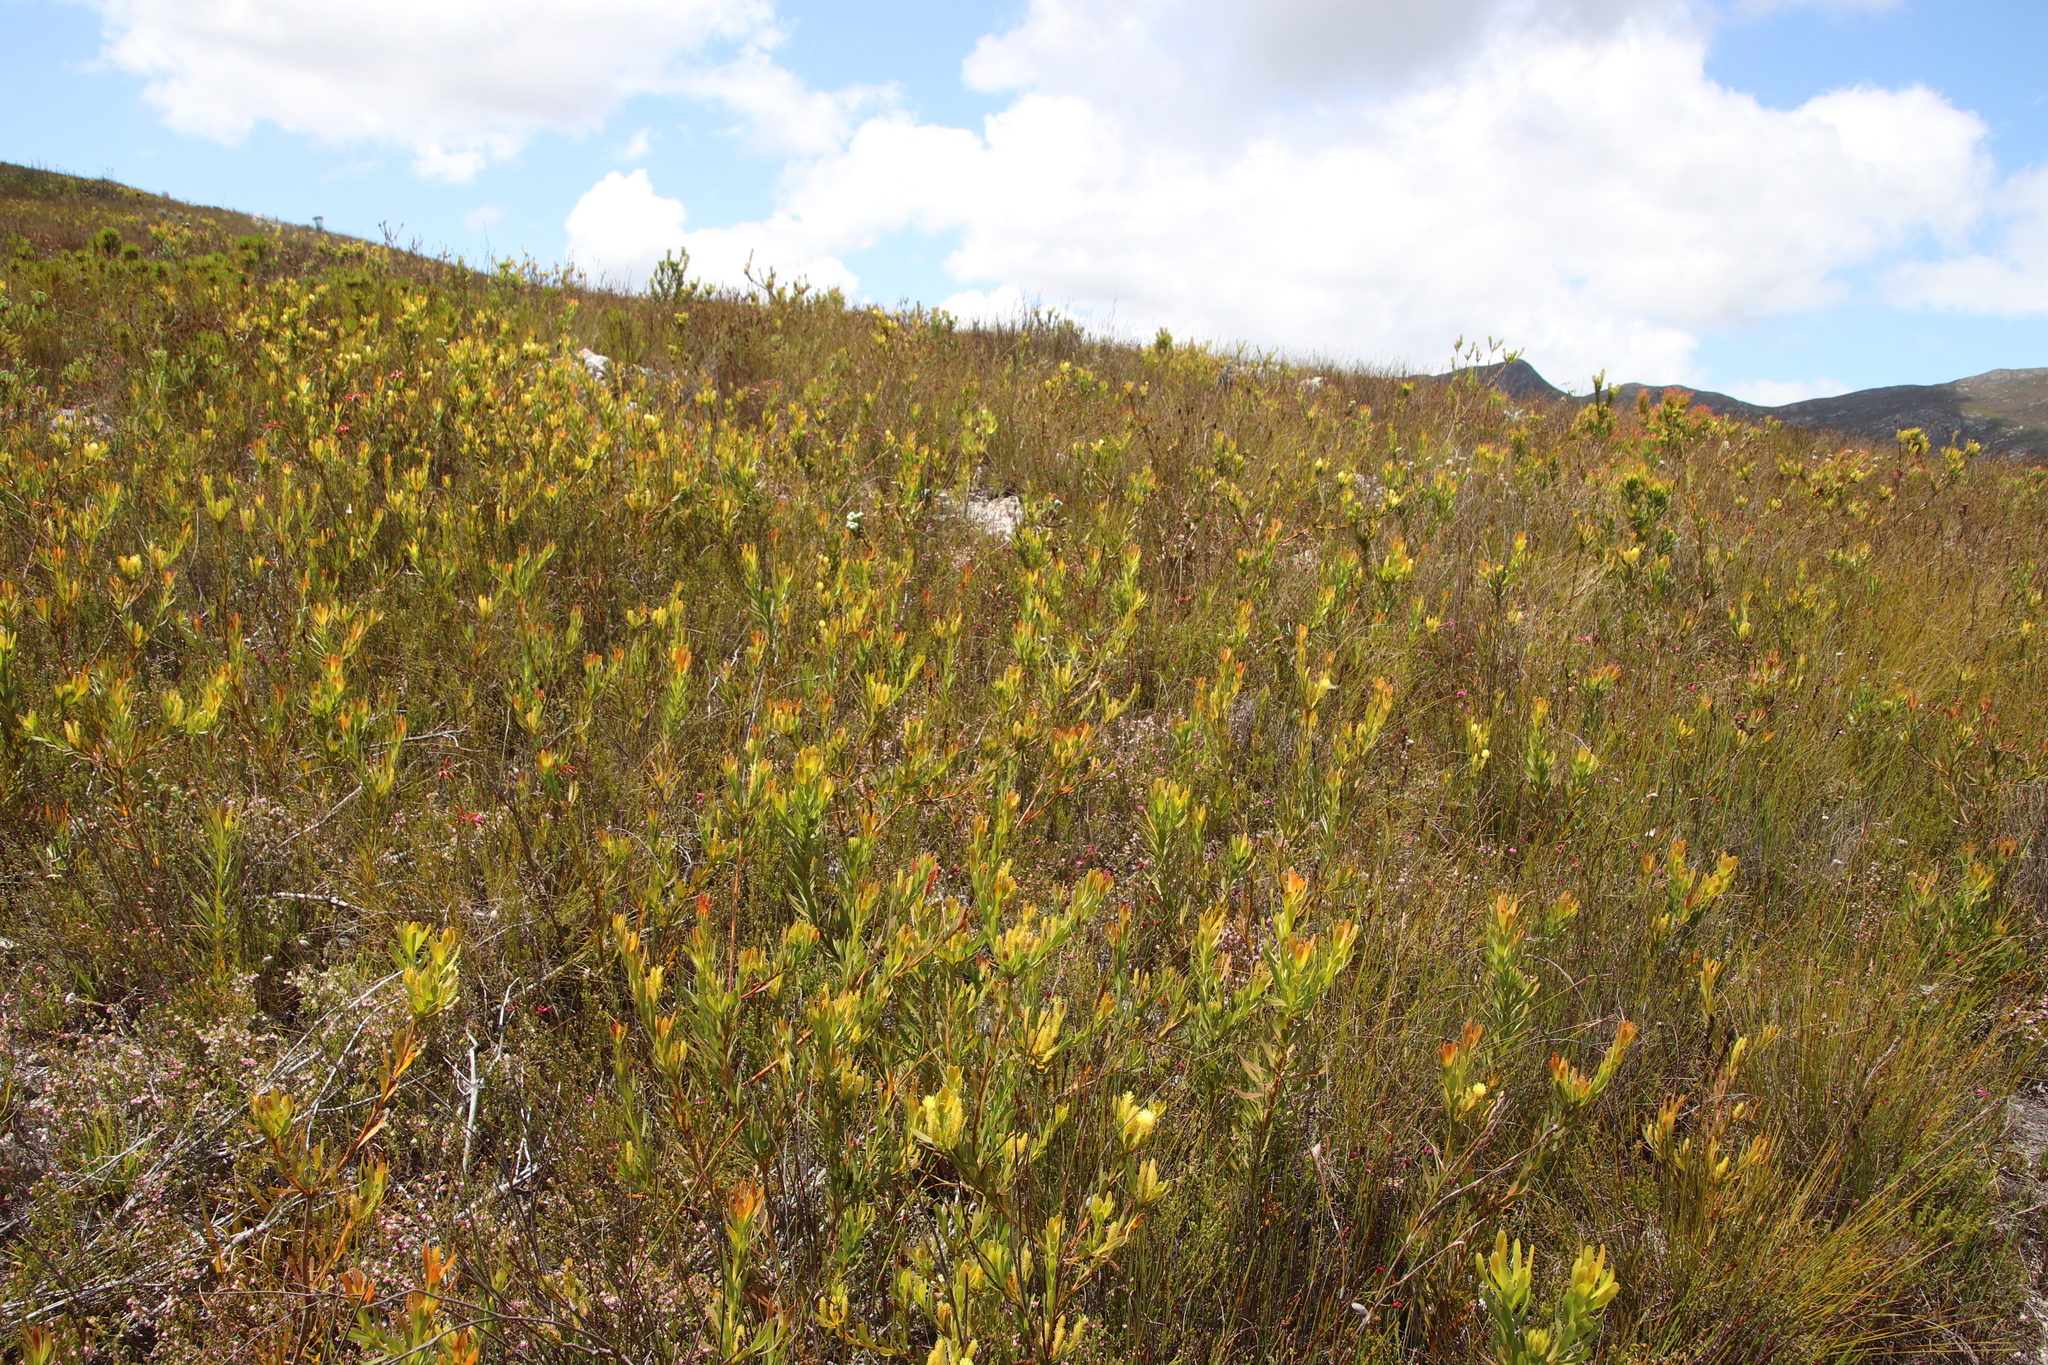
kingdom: Plantae
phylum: Tracheophyta
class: Magnoliopsida
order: Proteales
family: Proteaceae
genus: Aulax
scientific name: Aulax umbellata
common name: Broad-leaf featherbush
